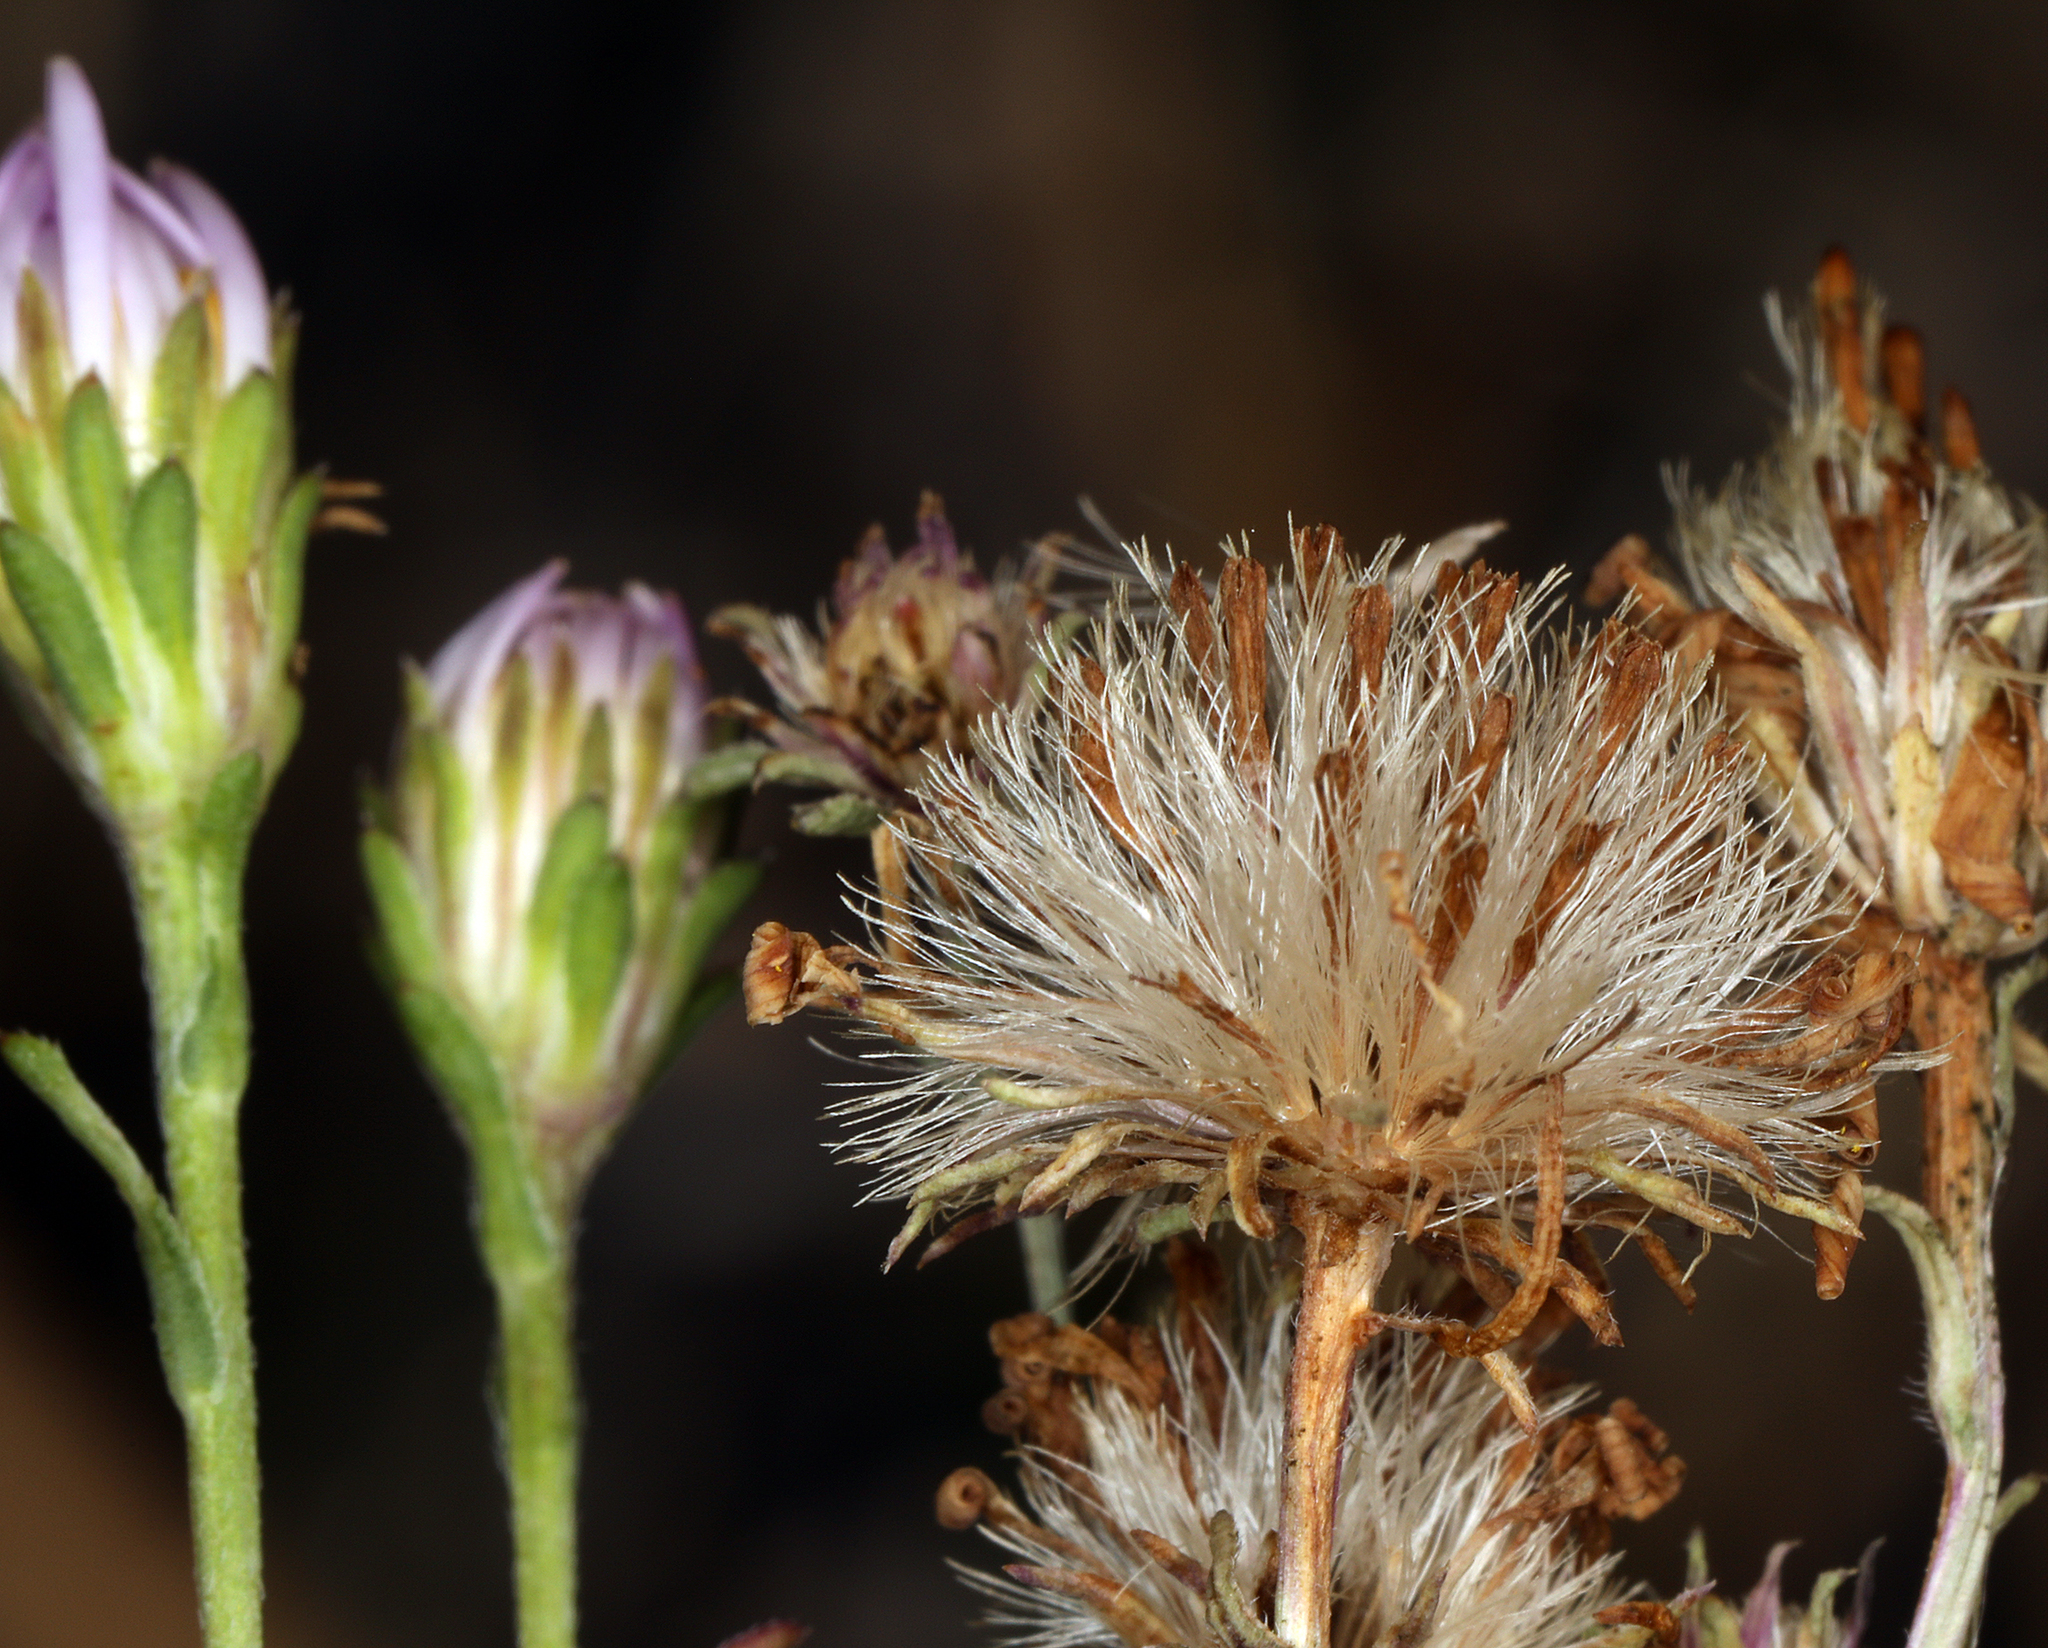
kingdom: Plantae
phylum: Tracheophyta
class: Magnoliopsida
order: Asterales
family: Asteraceae
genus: Symphyotrichum
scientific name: Symphyotrichum spathulatum
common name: Western mountain aster
